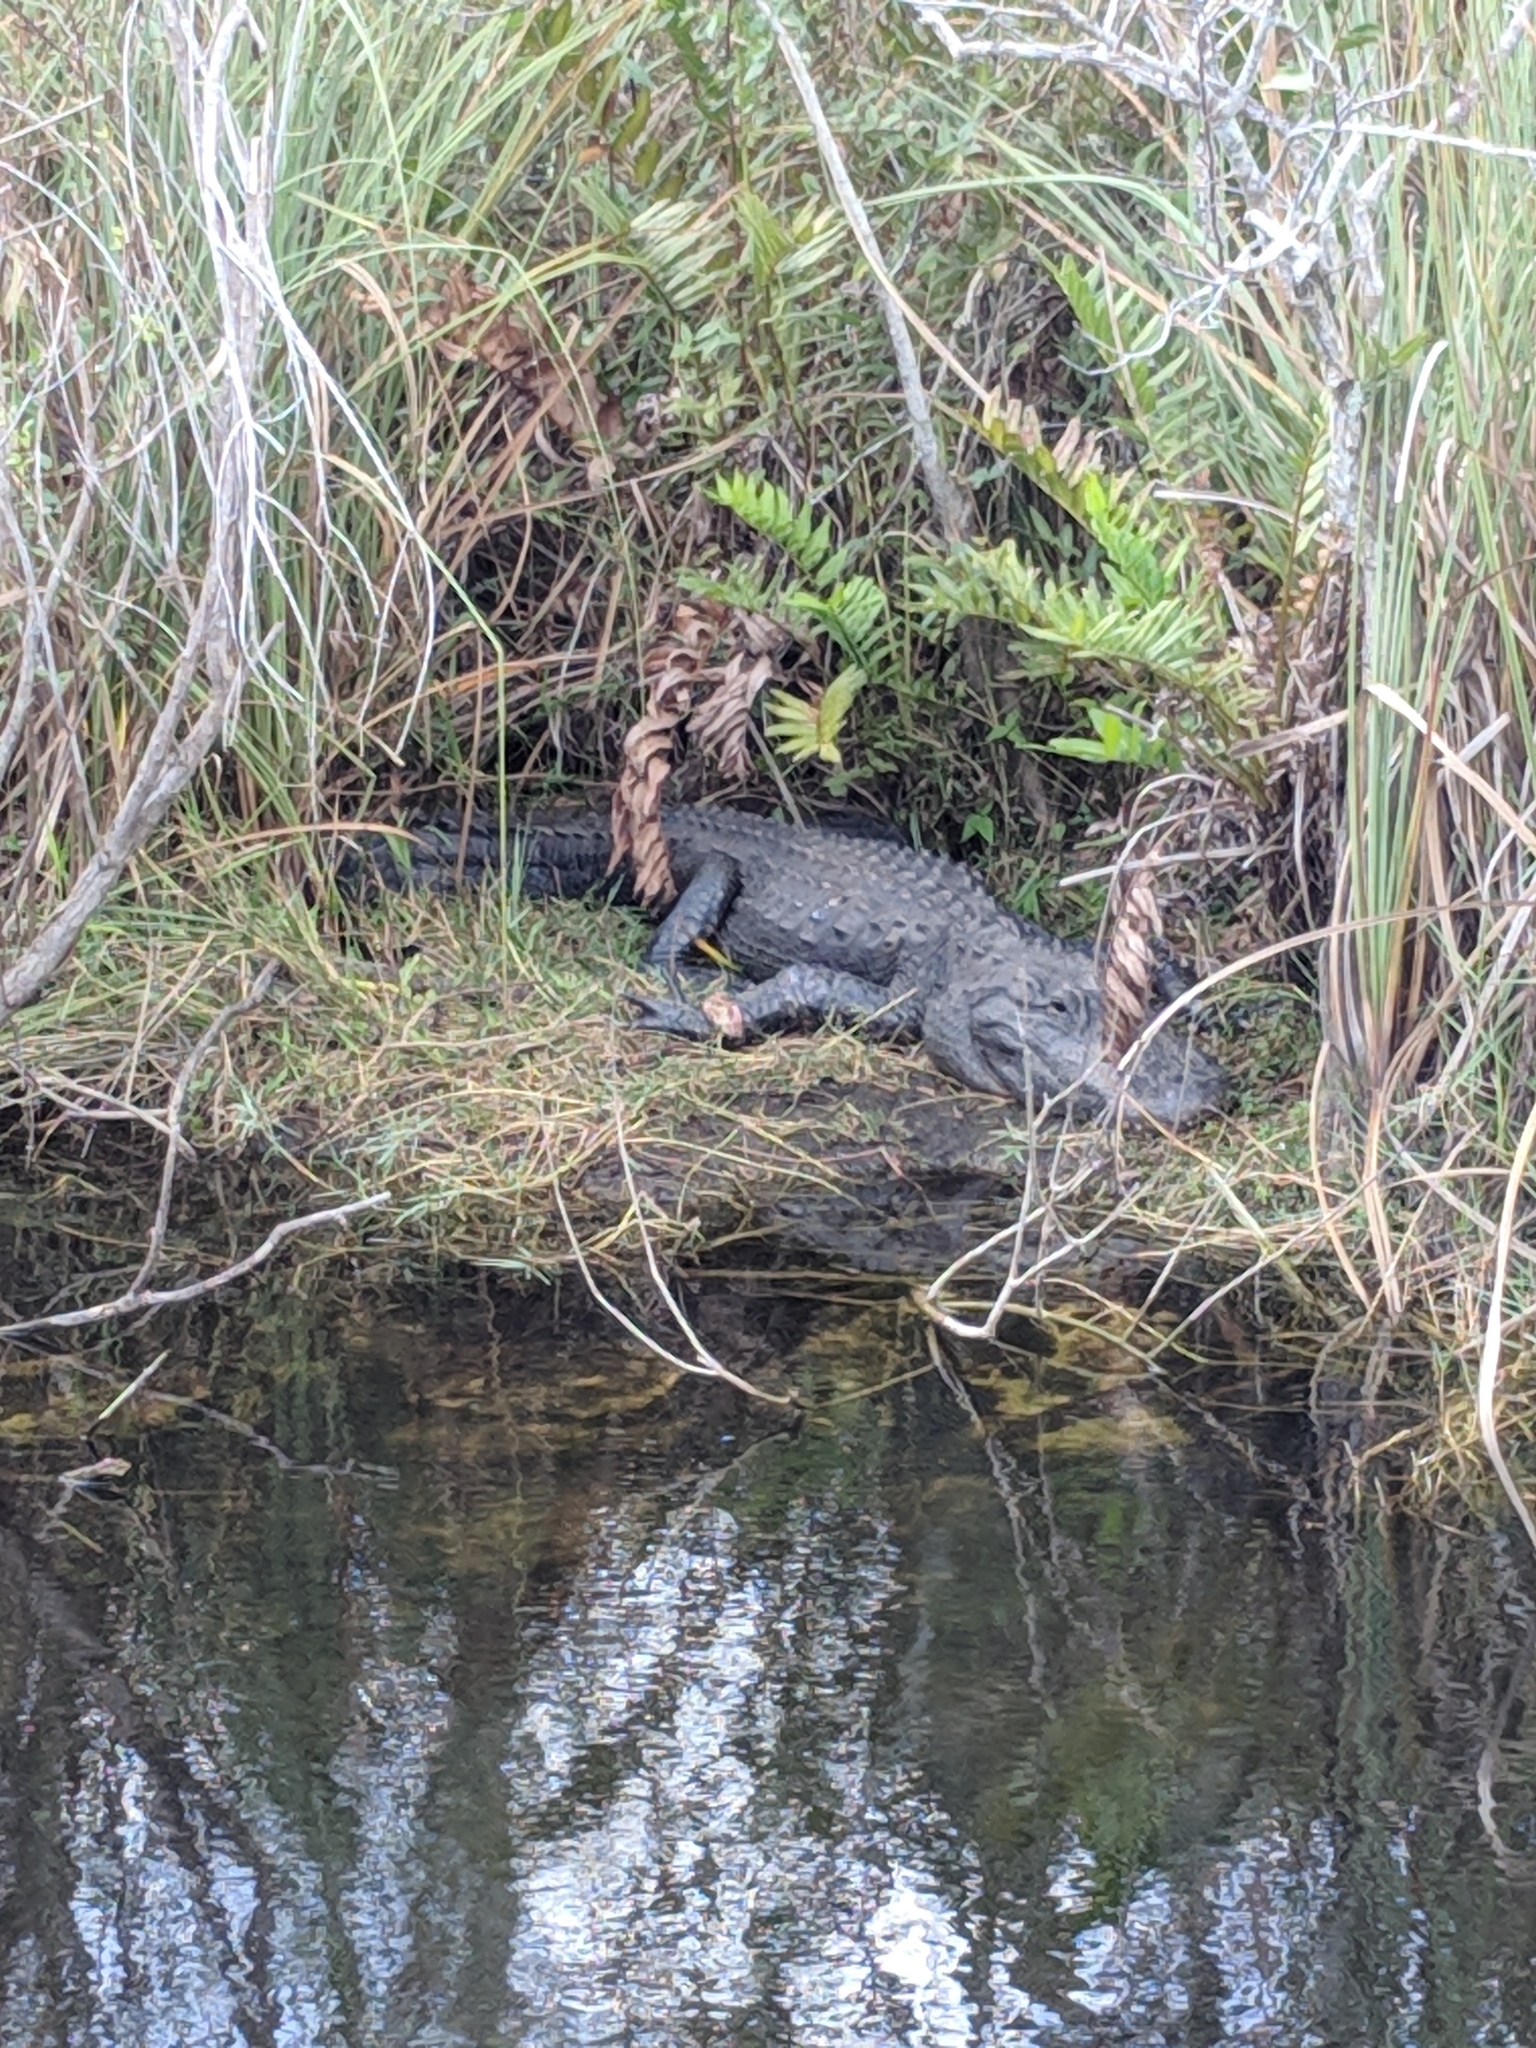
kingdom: Animalia
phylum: Chordata
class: Crocodylia
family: Alligatoridae
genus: Alligator
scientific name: Alligator mississippiensis
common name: American alligator
